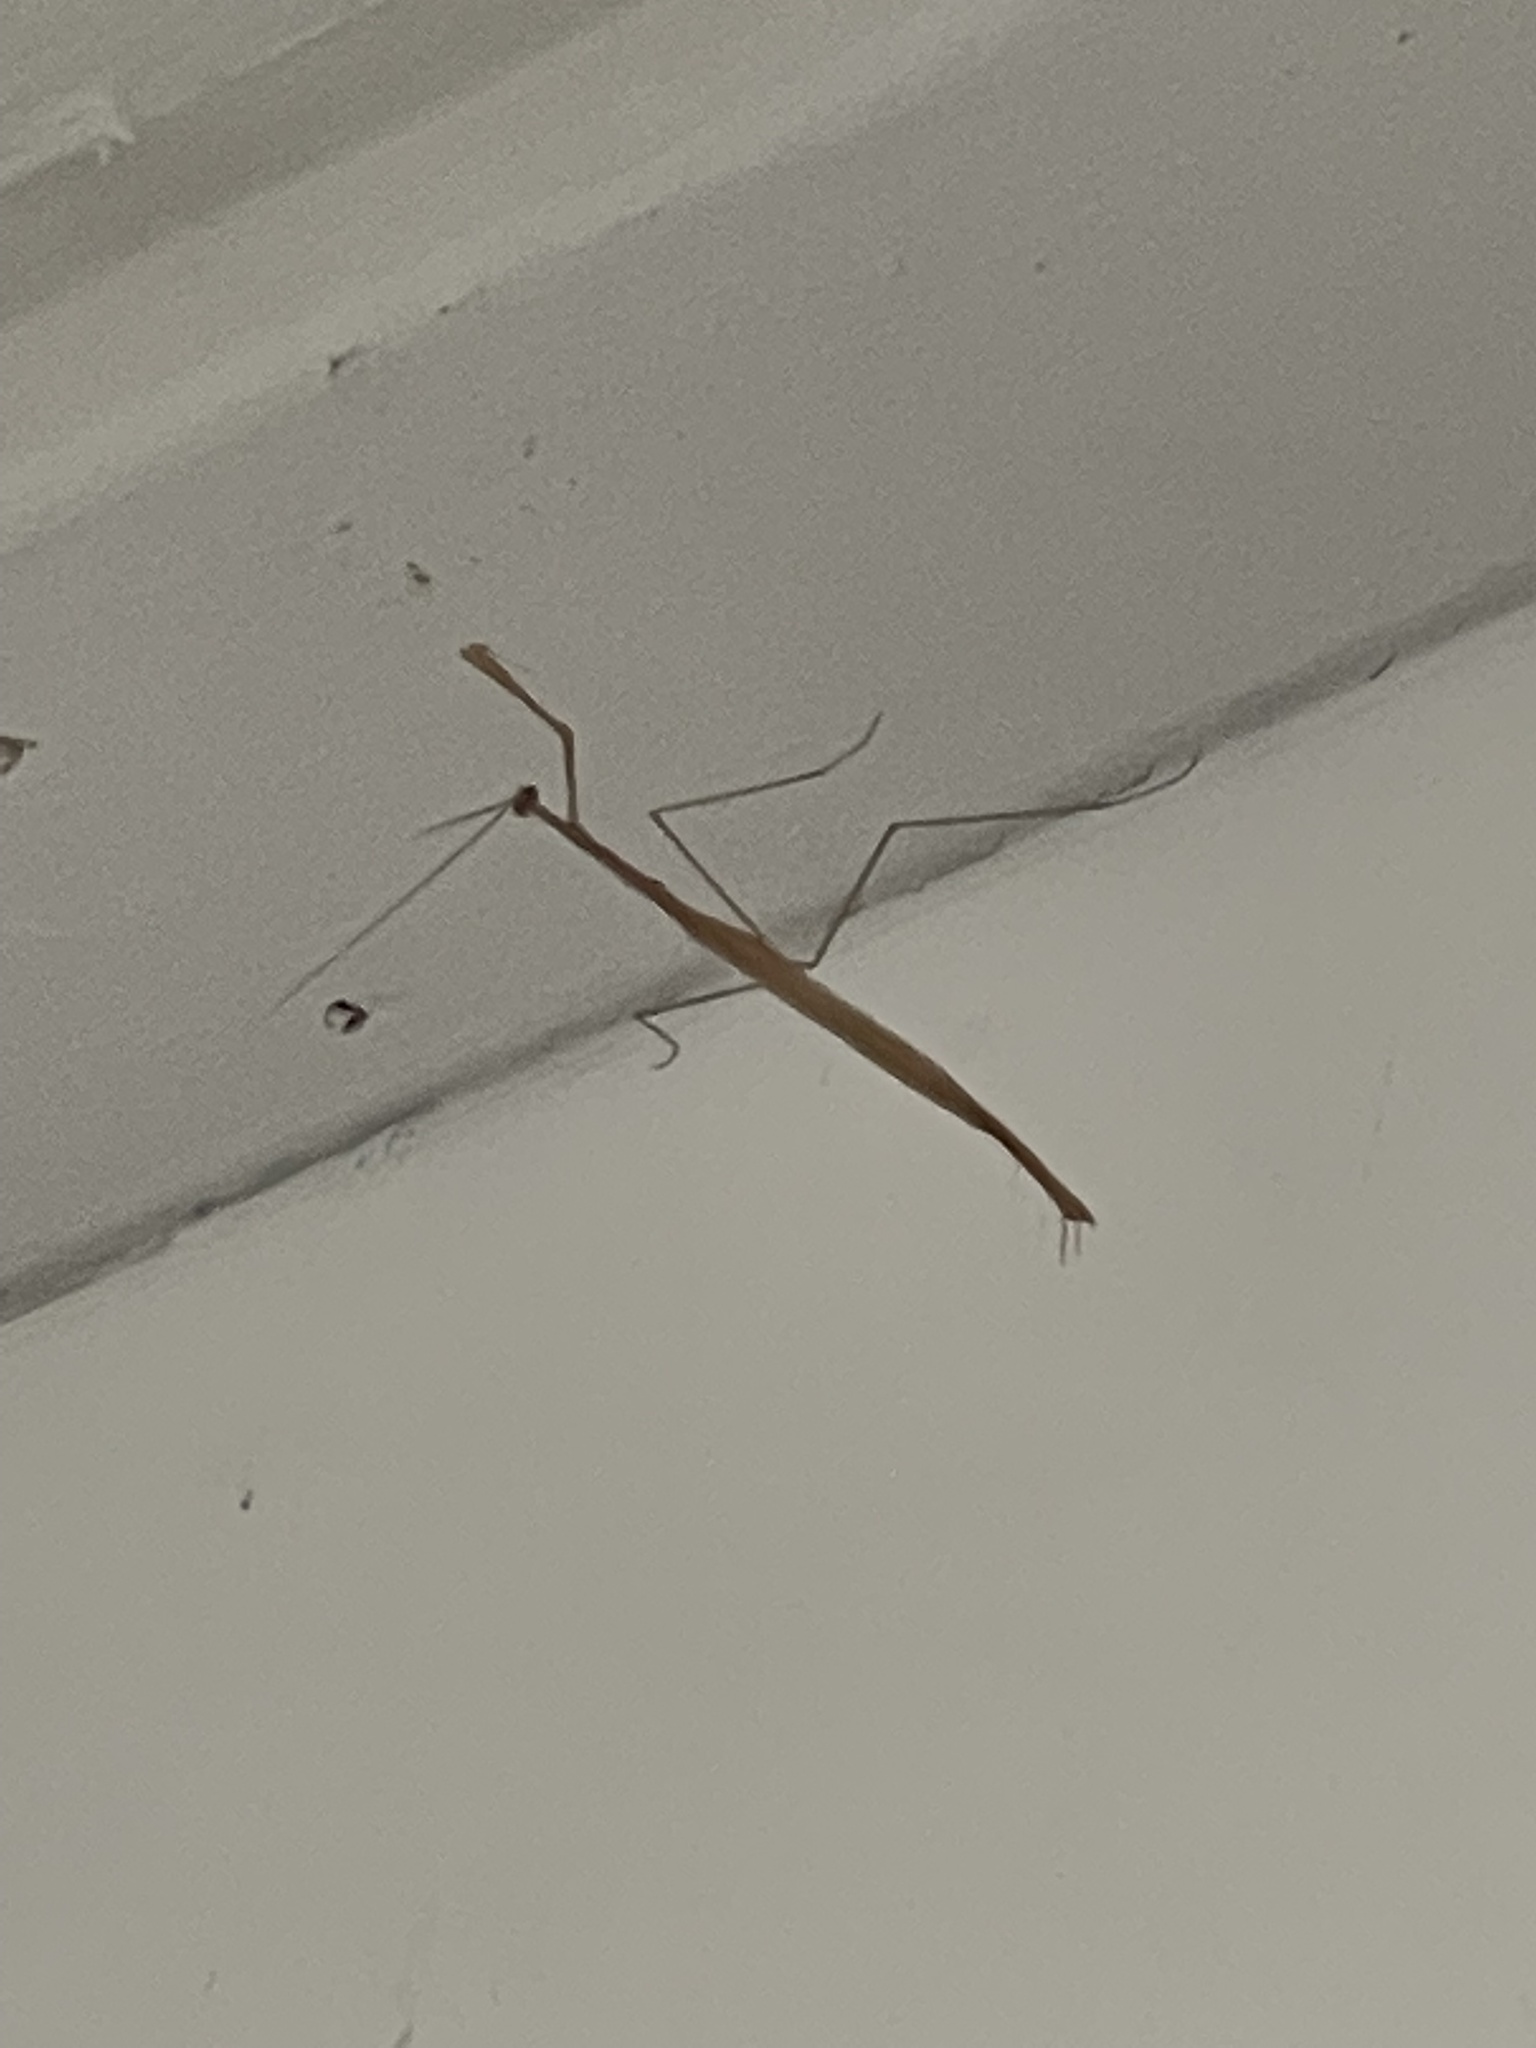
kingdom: Animalia
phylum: Arthropoda
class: Insecta
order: Mantodea
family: Thespidae
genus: Thesprotia
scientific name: Thesprotia graminis
